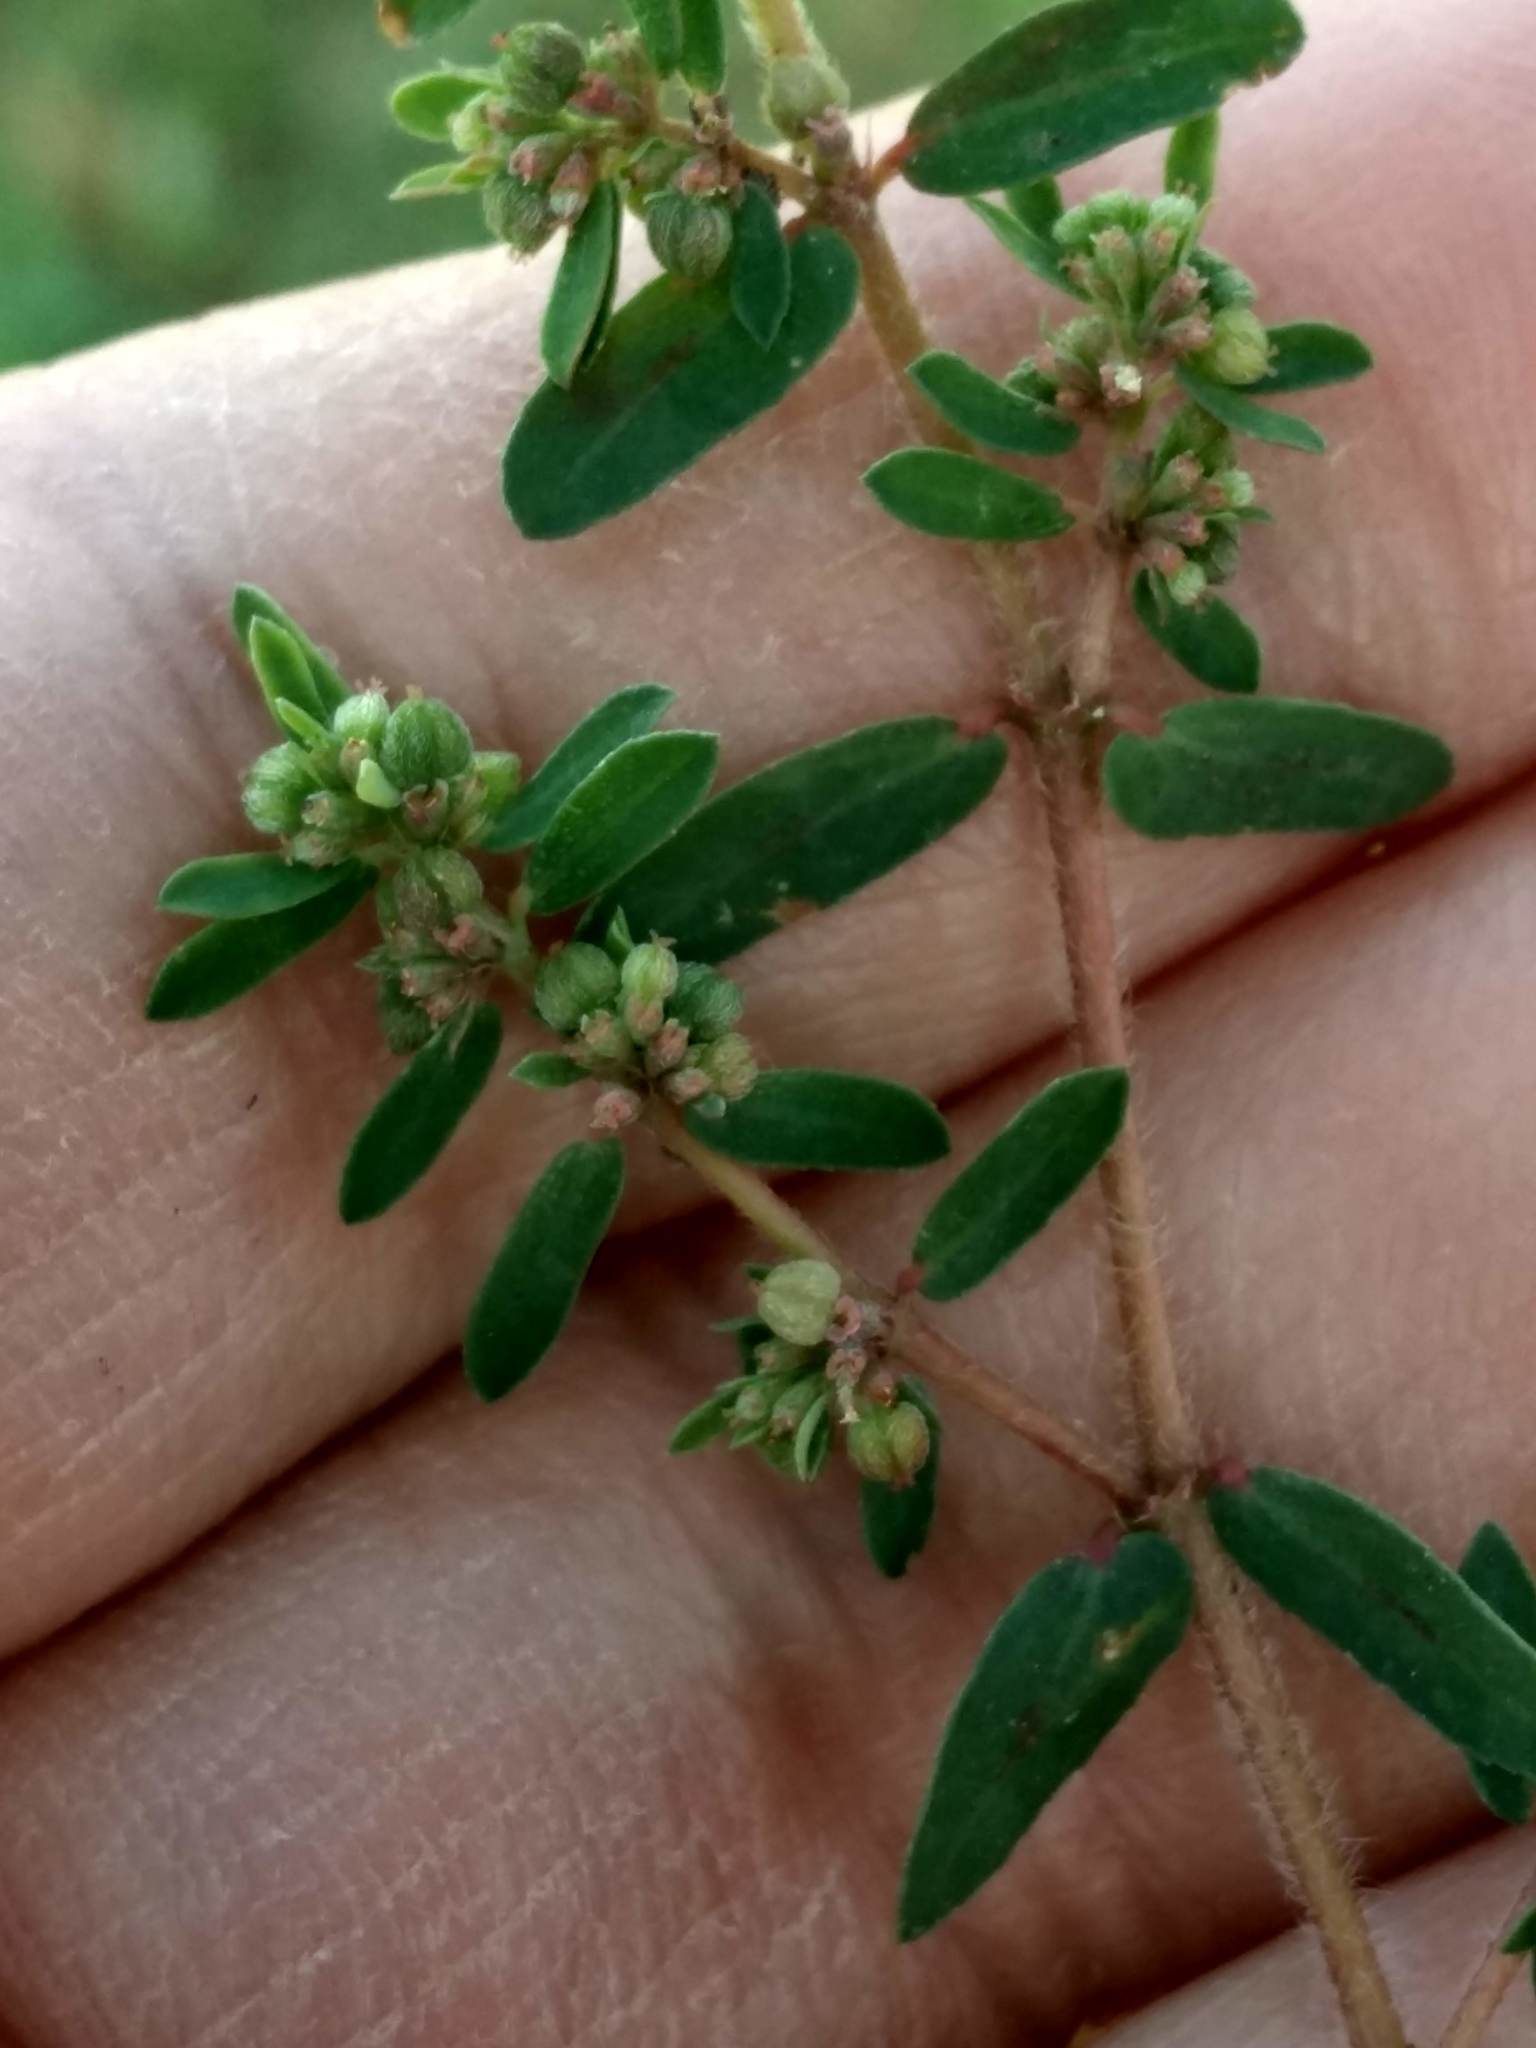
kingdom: Plantae
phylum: Tracheophyta
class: Magnoliopsida
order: Malpighiales
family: Euphorbiaceae
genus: Euphorbia
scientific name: Euphorbia maculata
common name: Spotted spurge
